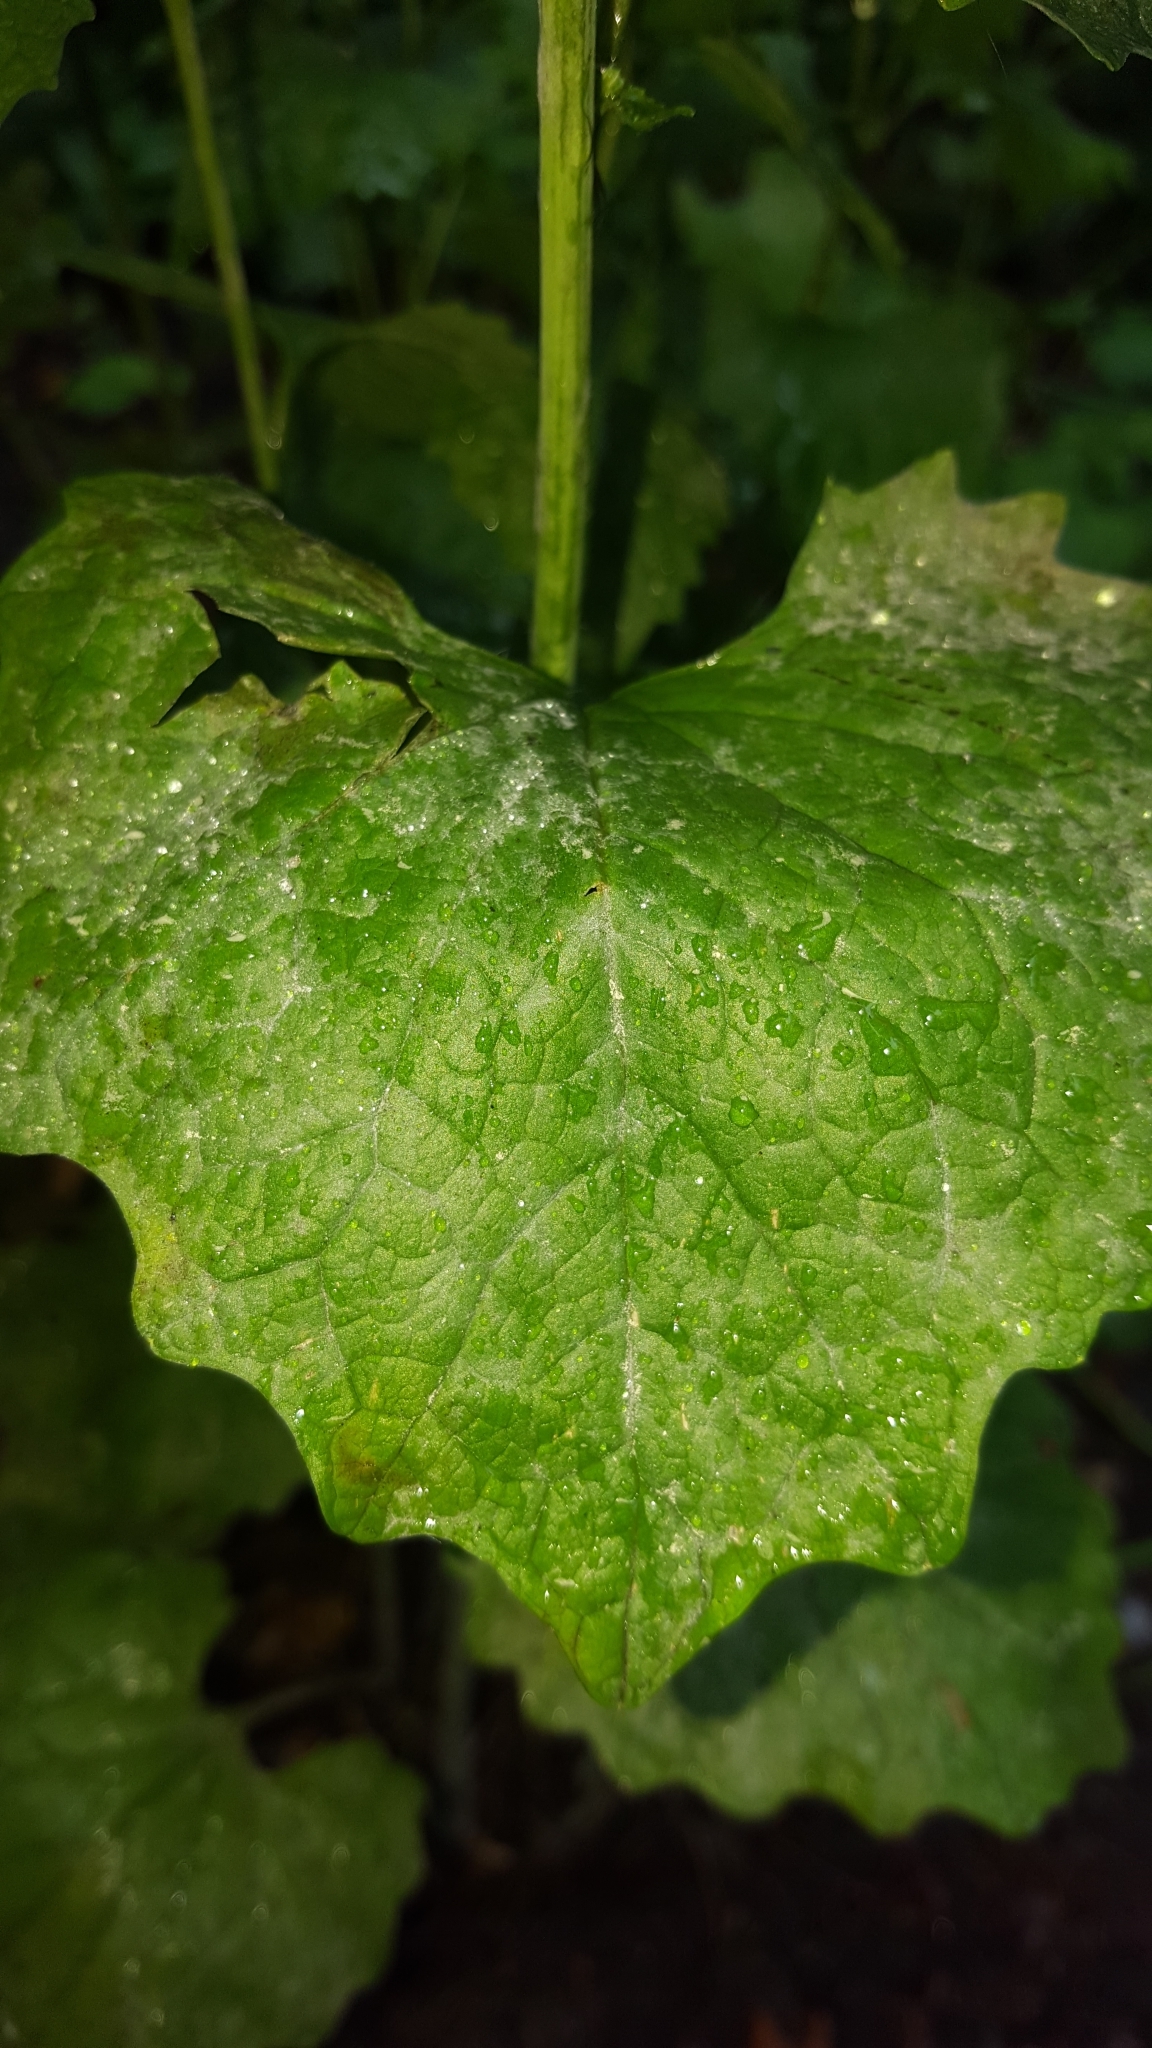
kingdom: Fungi
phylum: Ascomycota
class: Leotiomycetes
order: Helotiales
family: Erysiphaceae
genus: Erysiphe
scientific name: Erysiphe cruciferarum
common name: Brassica powdery mildew
